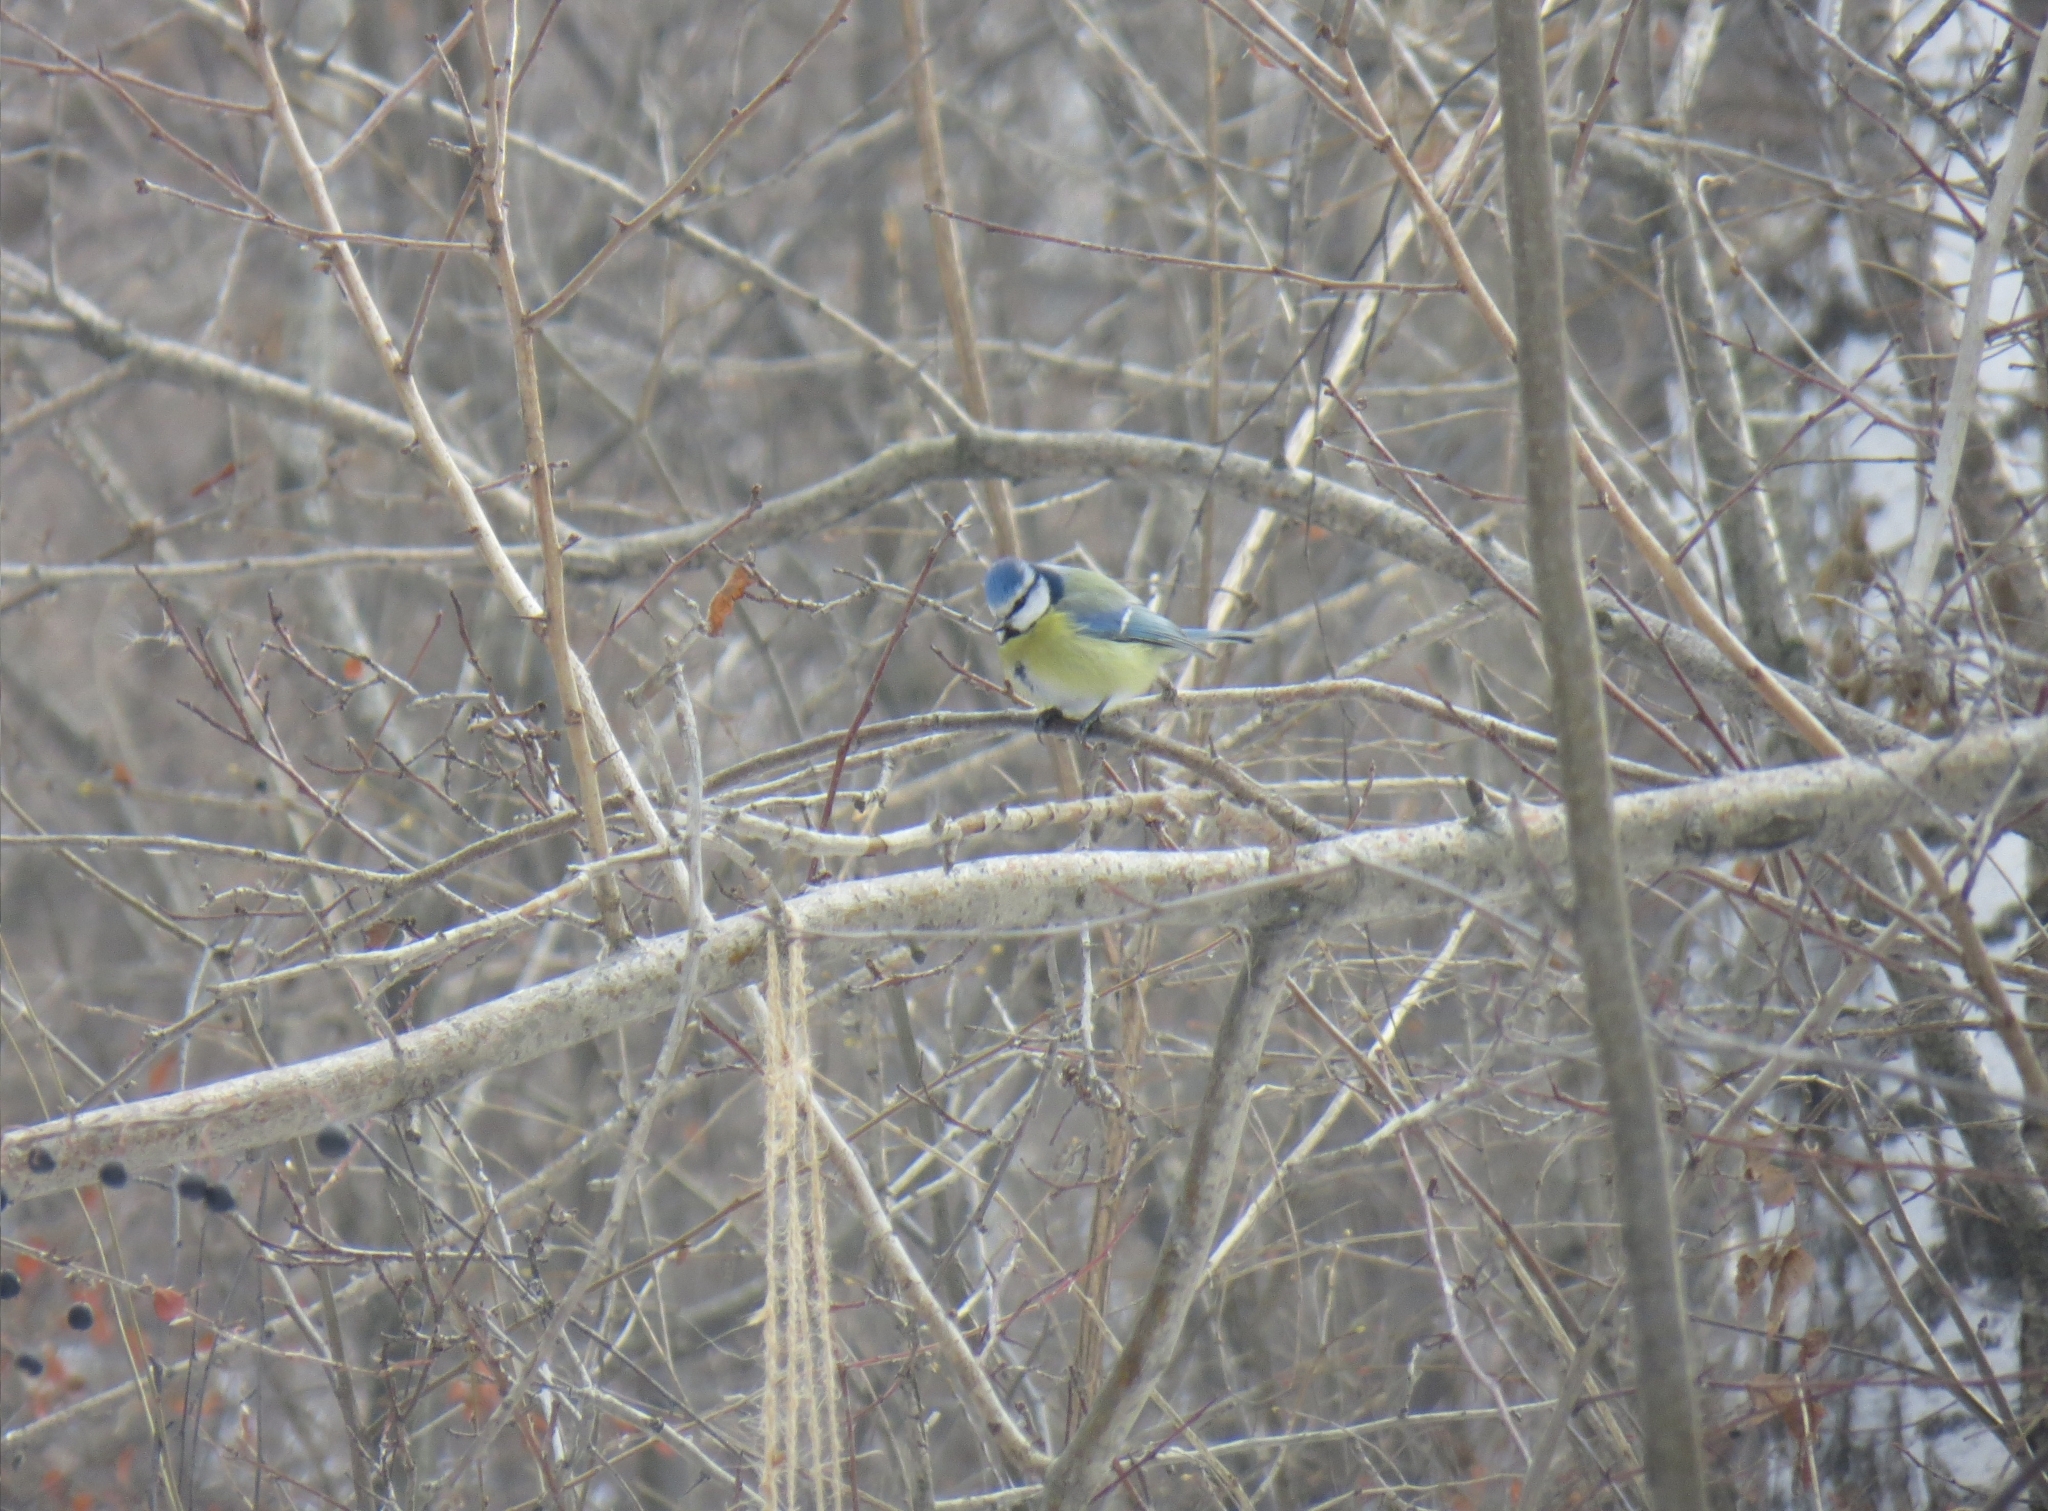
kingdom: Animalia
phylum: Chordata
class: Aves
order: Passeriformes
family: Paridae
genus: Cyanistes
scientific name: Cyanistes caeruleus
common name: Eurasian blue tit
